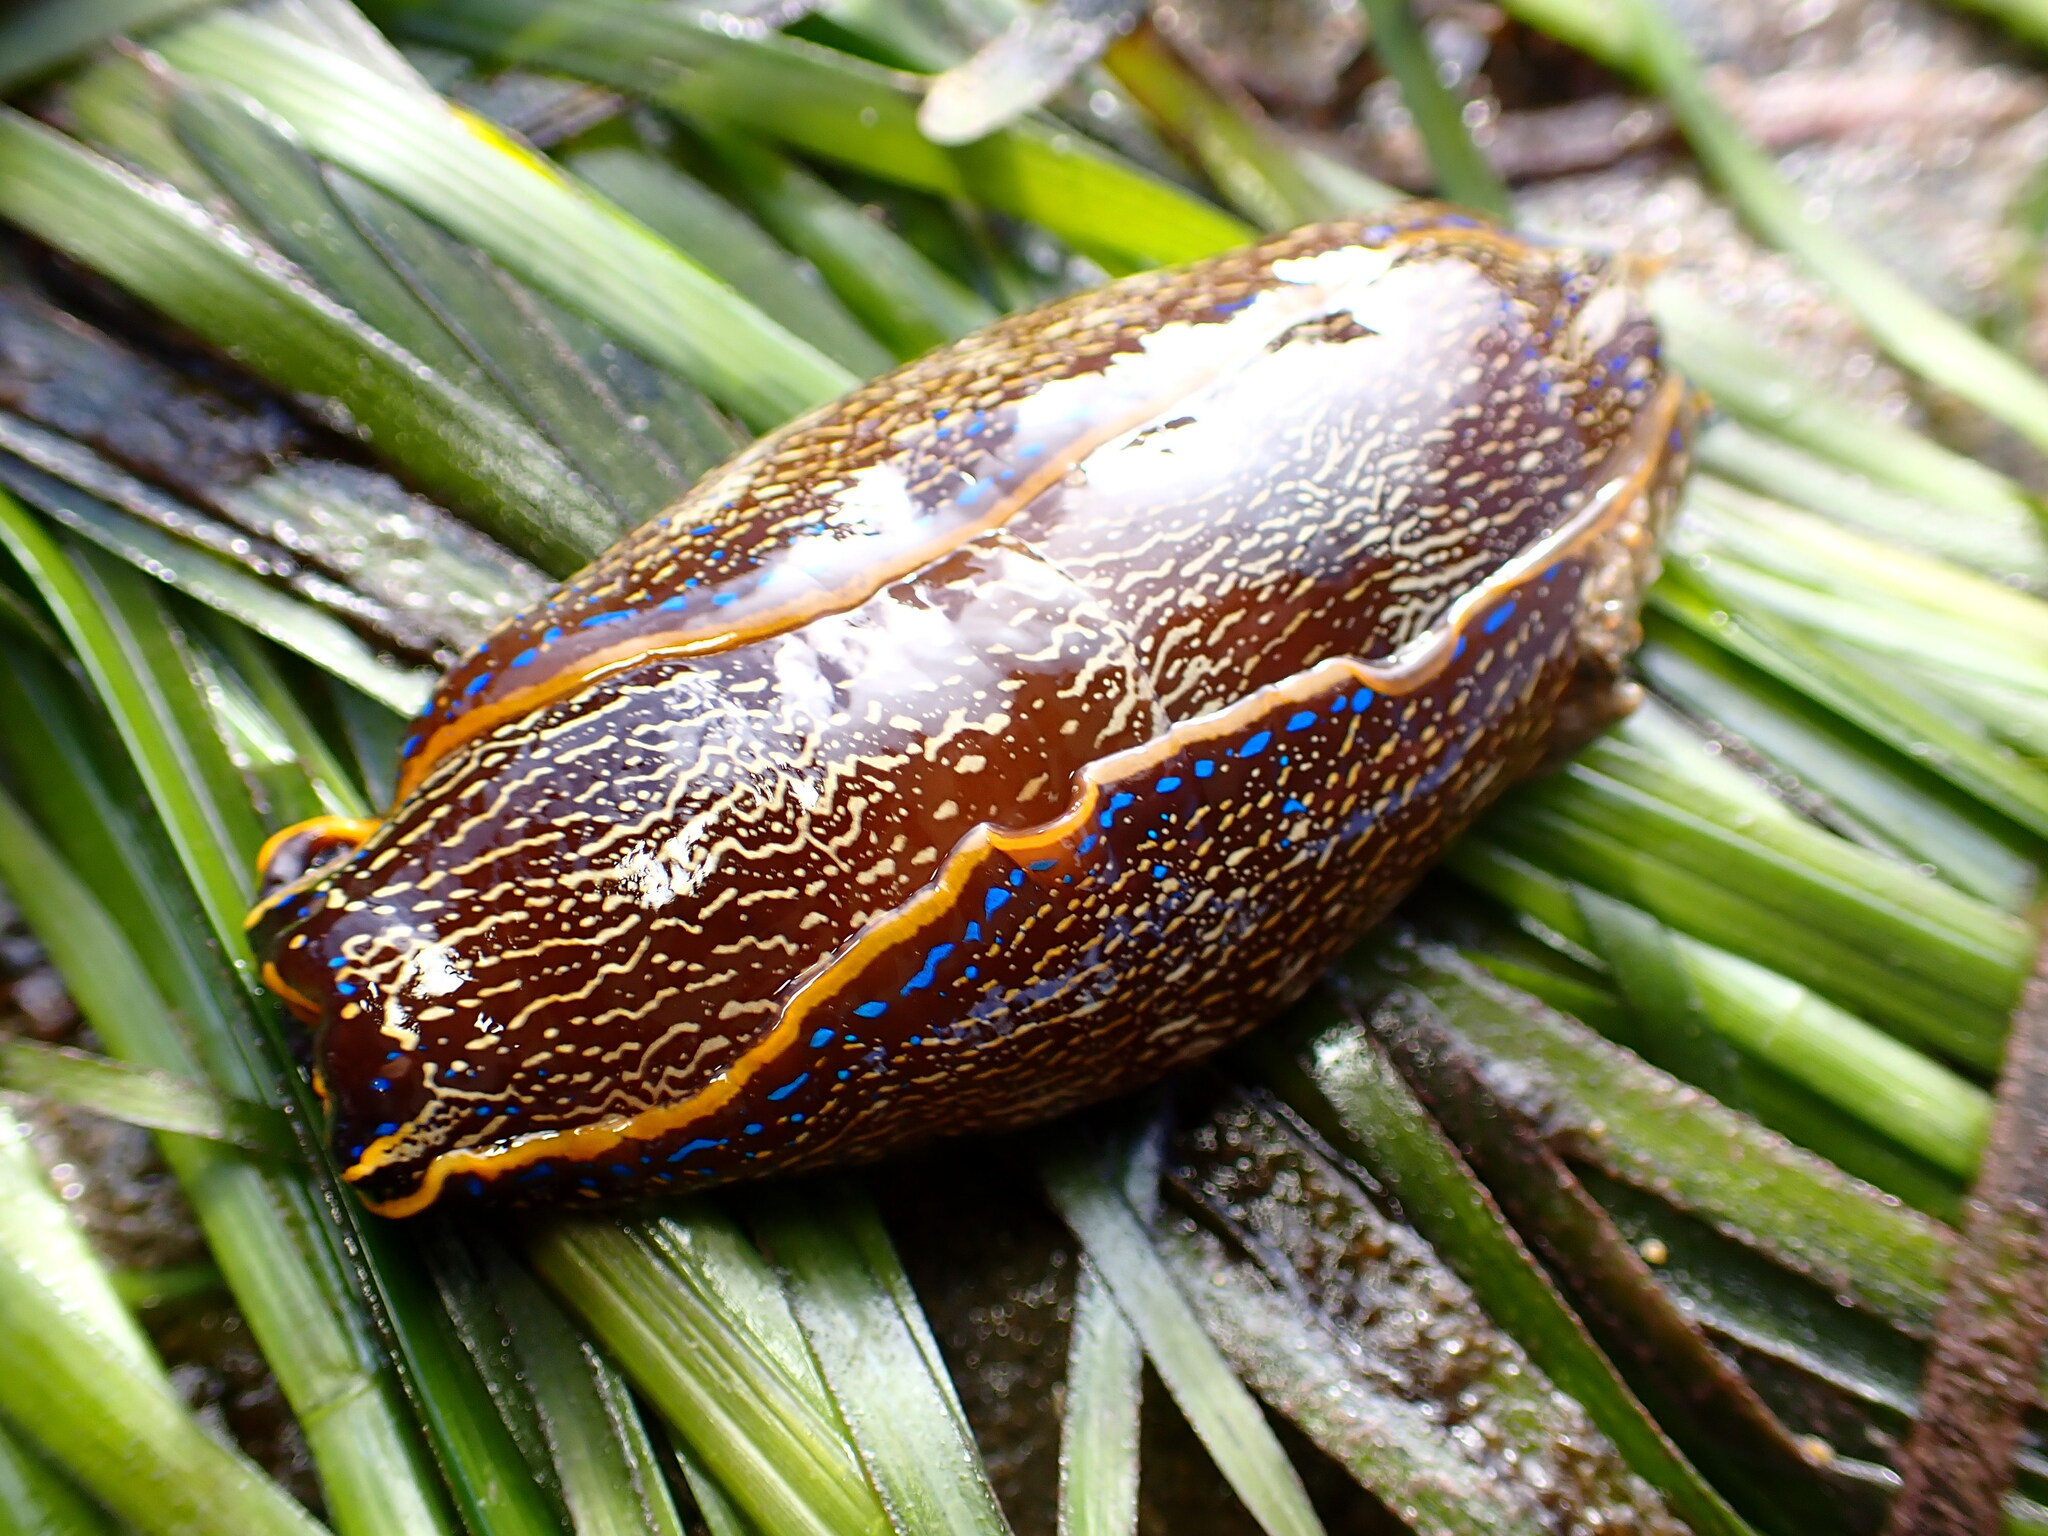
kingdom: Animalia
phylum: Mollusca
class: Gastropoda
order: Cephalaspidea
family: Aglajidae
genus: Navanax
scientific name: Navanax inermis
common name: California aglaja
